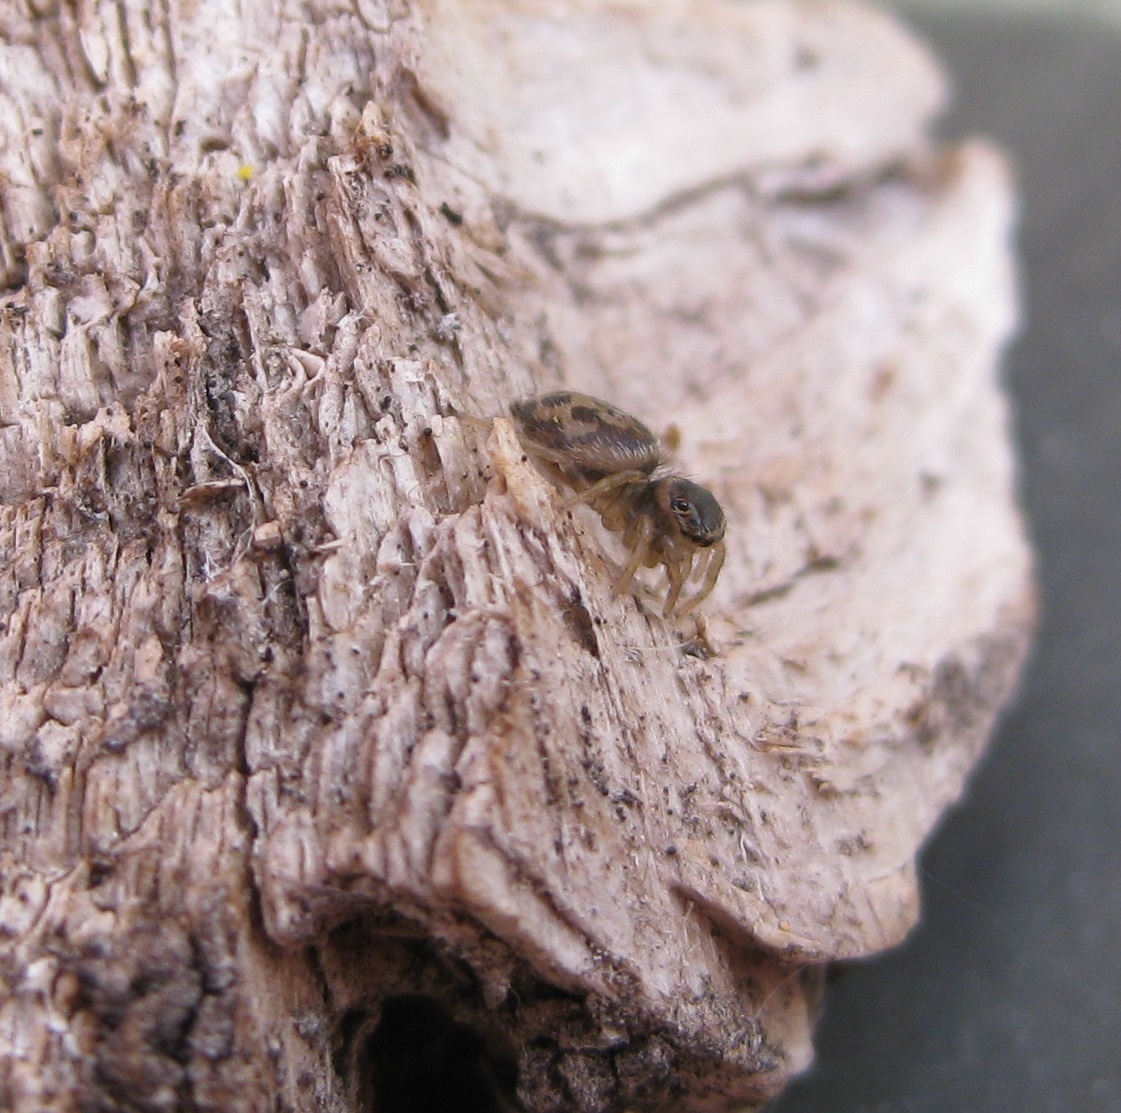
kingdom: Animalia
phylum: Arthropoda
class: Arachnida
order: Araneae
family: Salticidae
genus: Maratus
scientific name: Maratus griseus
